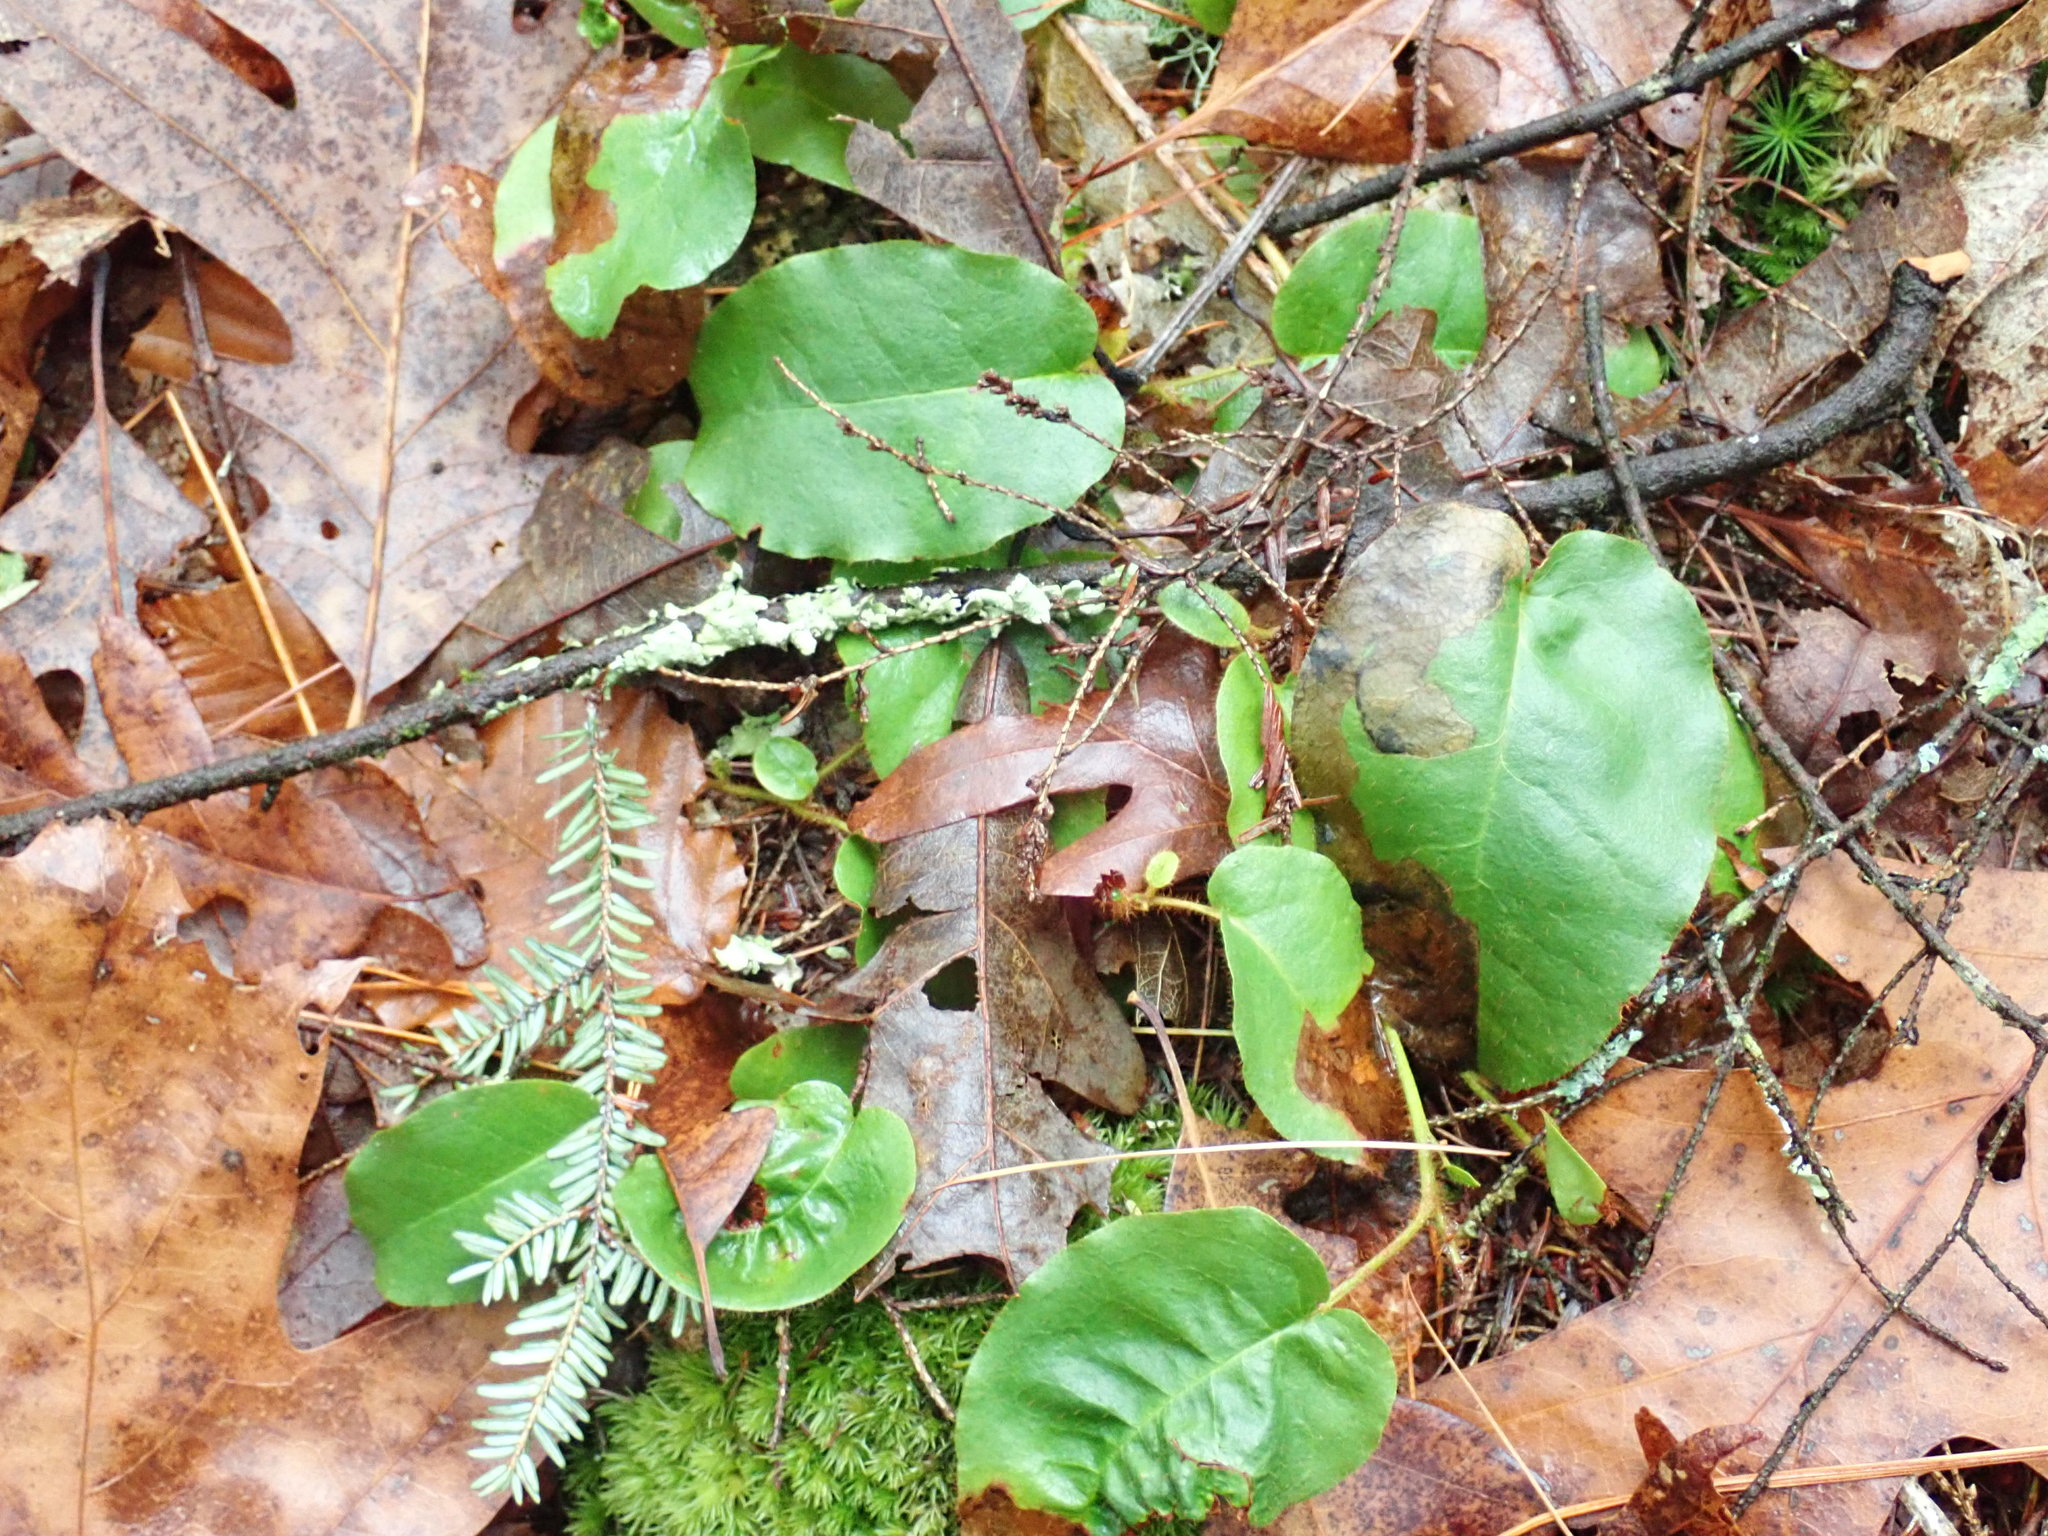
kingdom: Plantae
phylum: Tracheophyta
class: Magnoliopsida
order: Ericales
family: Ericaceae
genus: Epigaea
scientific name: Epigaea repens
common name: Gravelroot
